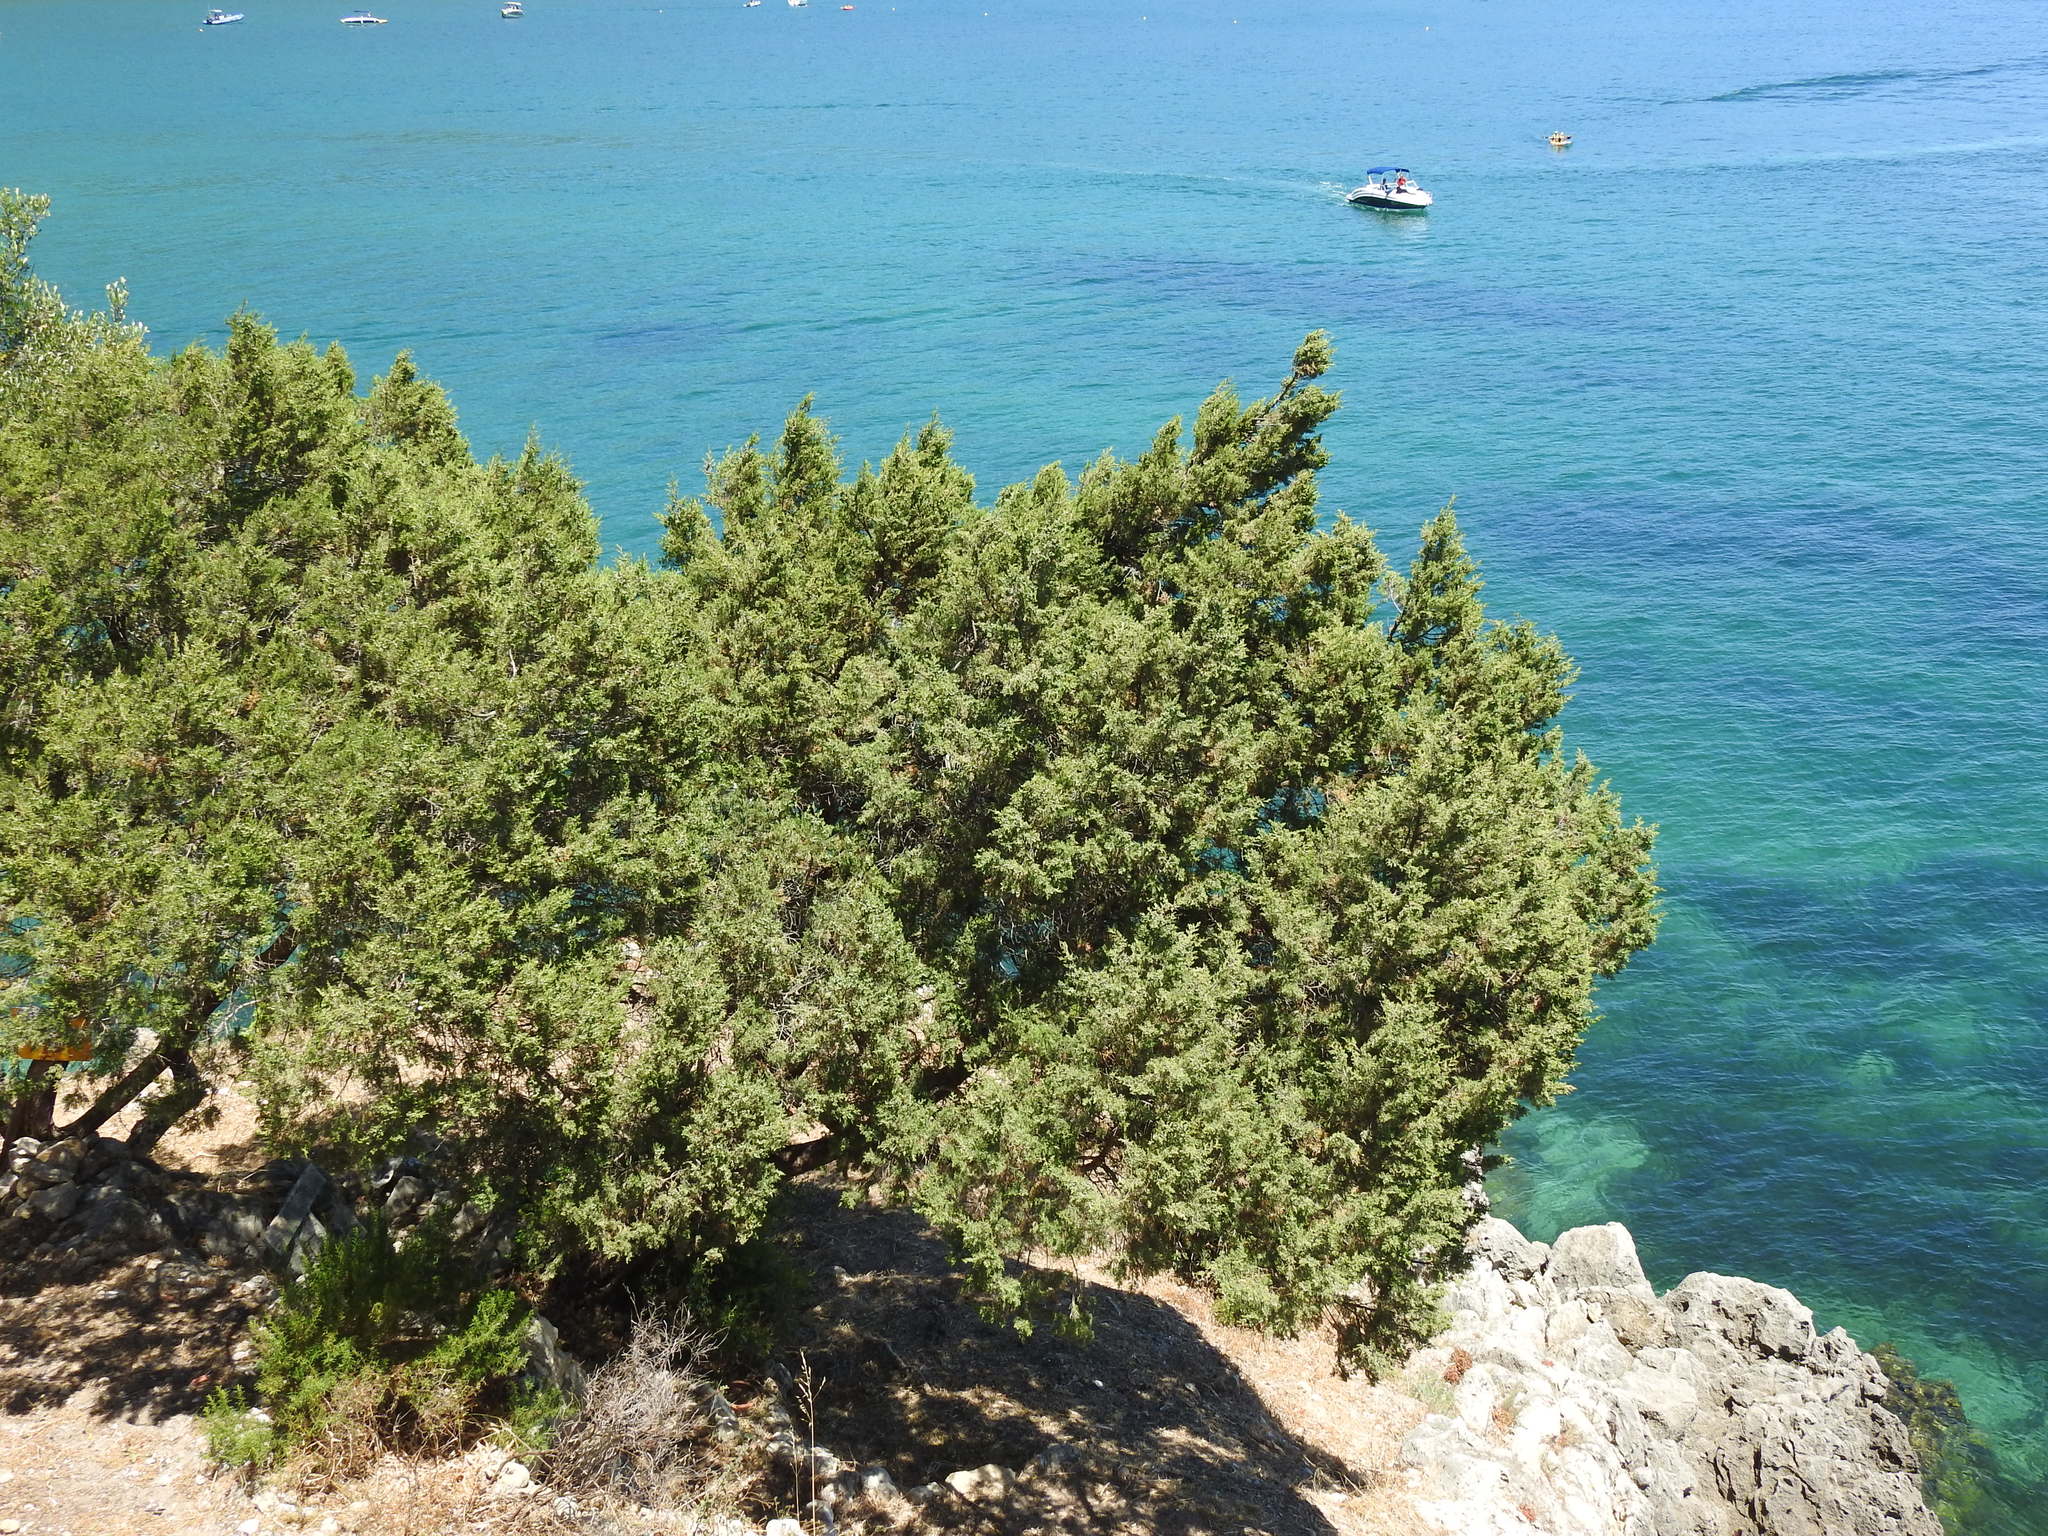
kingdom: Plantae
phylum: Tracheophyta
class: Pinopsida
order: Pinales
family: Cupressaceae
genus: Juniperus
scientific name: Juniperus phoenicea
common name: Phoenician juniper
